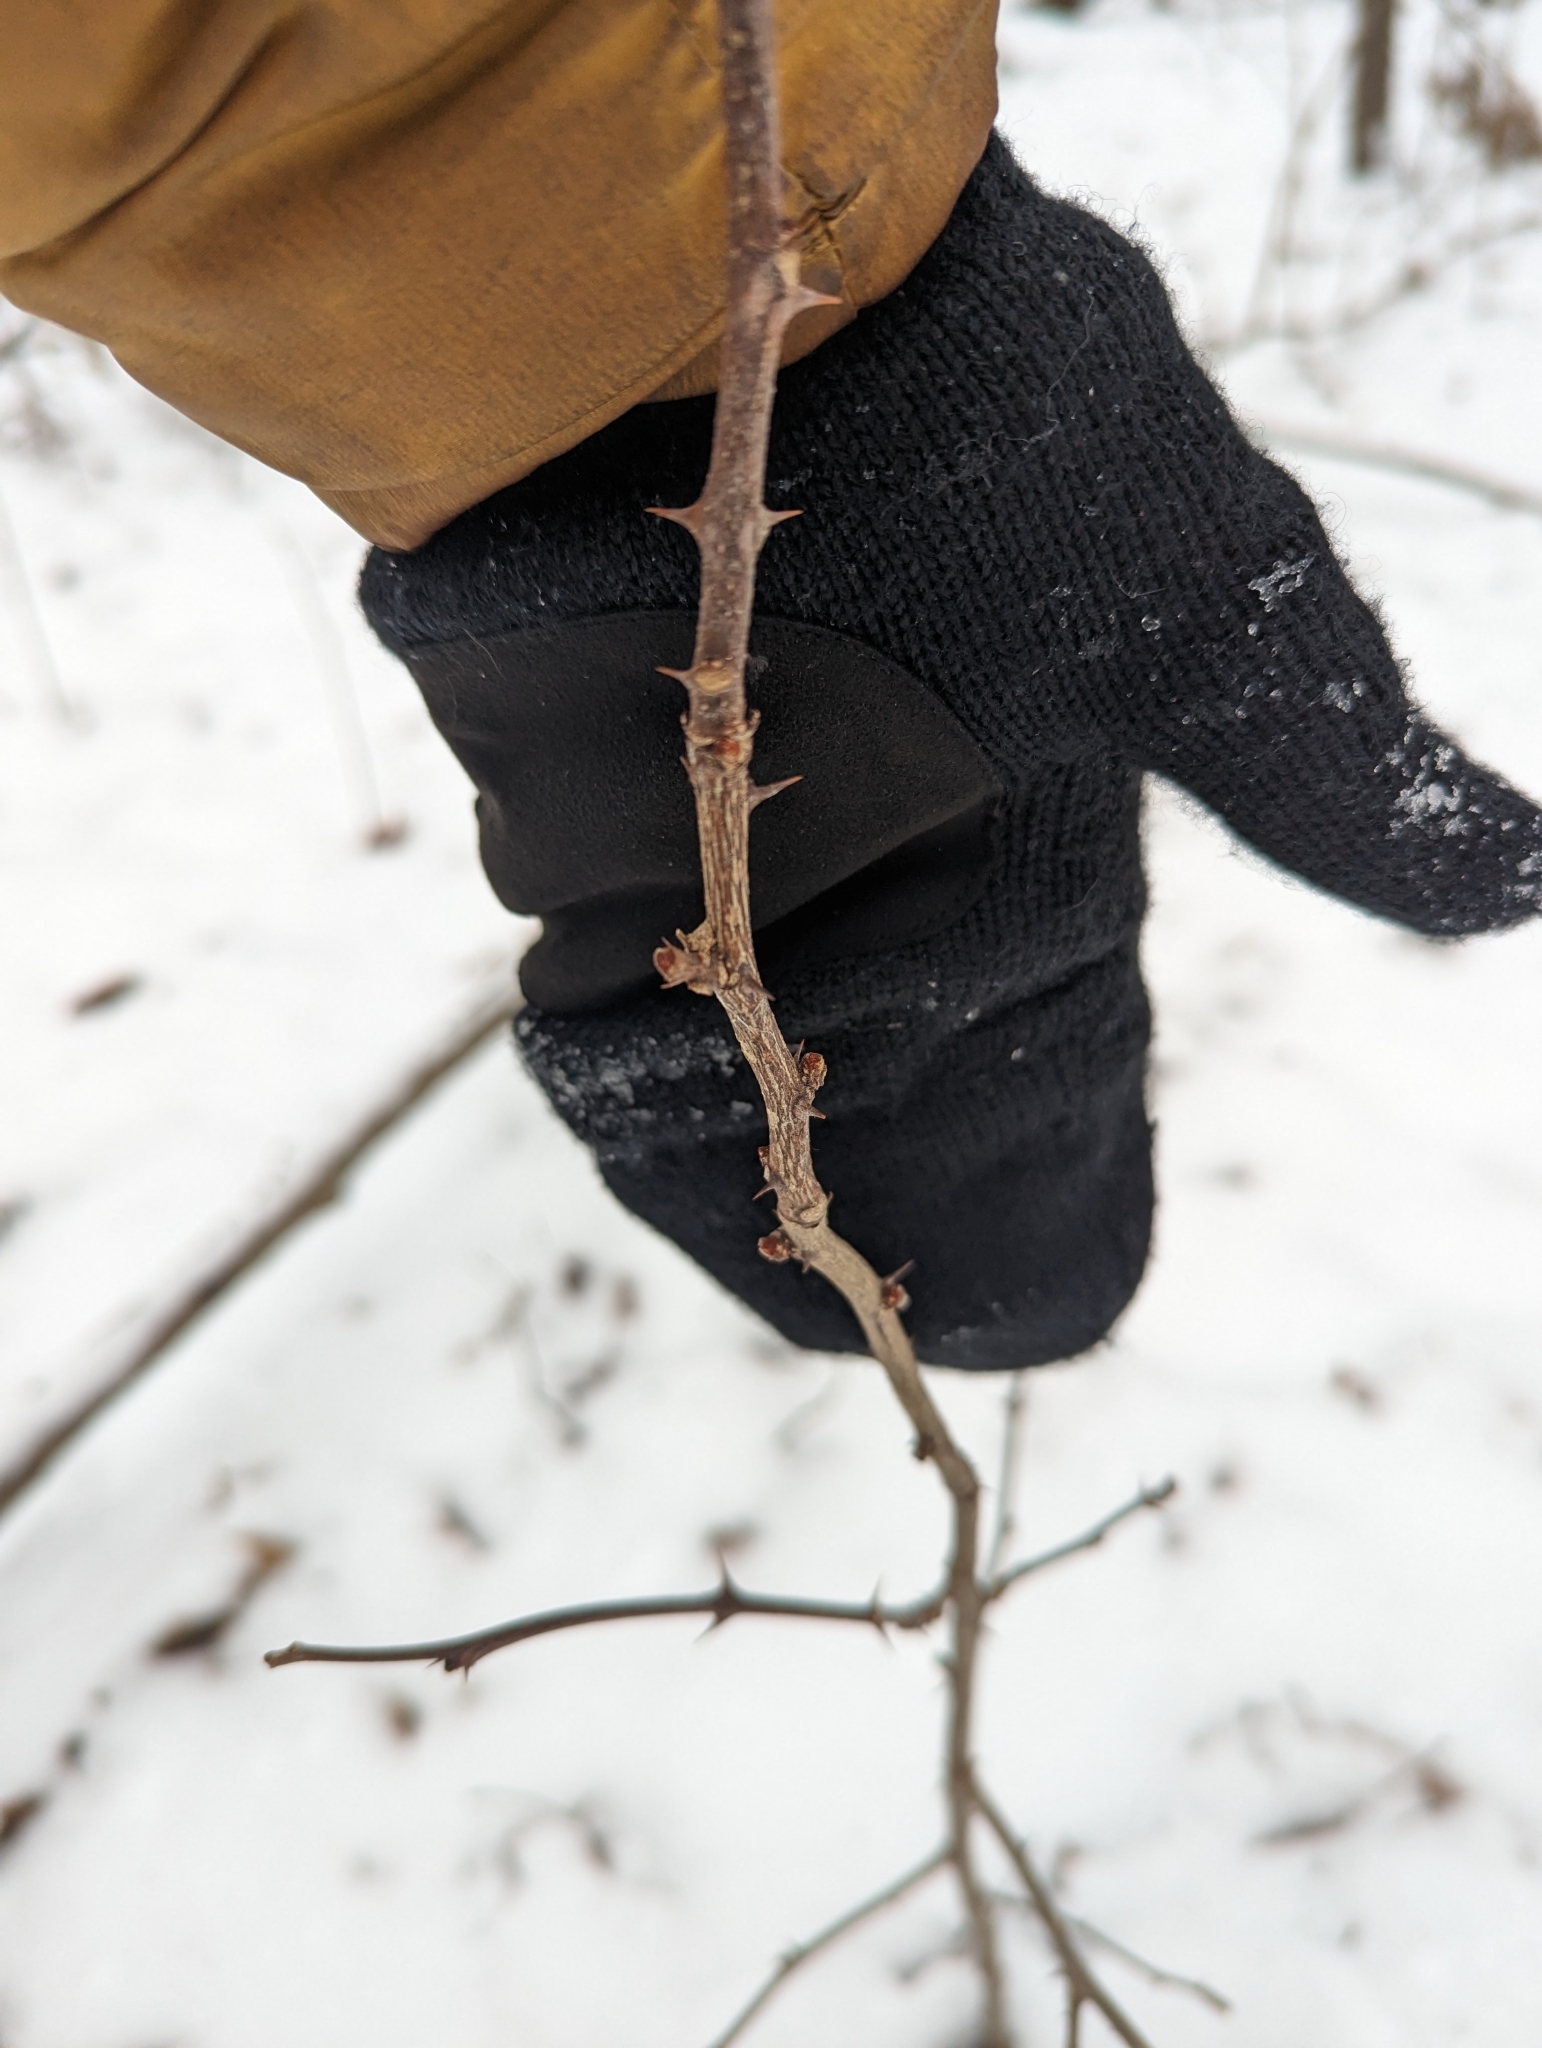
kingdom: Plantae
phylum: Tracheophyta
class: Magnoliopsida
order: Sapindales
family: Rutaceae
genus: Zanthoxylum
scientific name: Zanthoxylum americanum
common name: Northern prickly-ash
